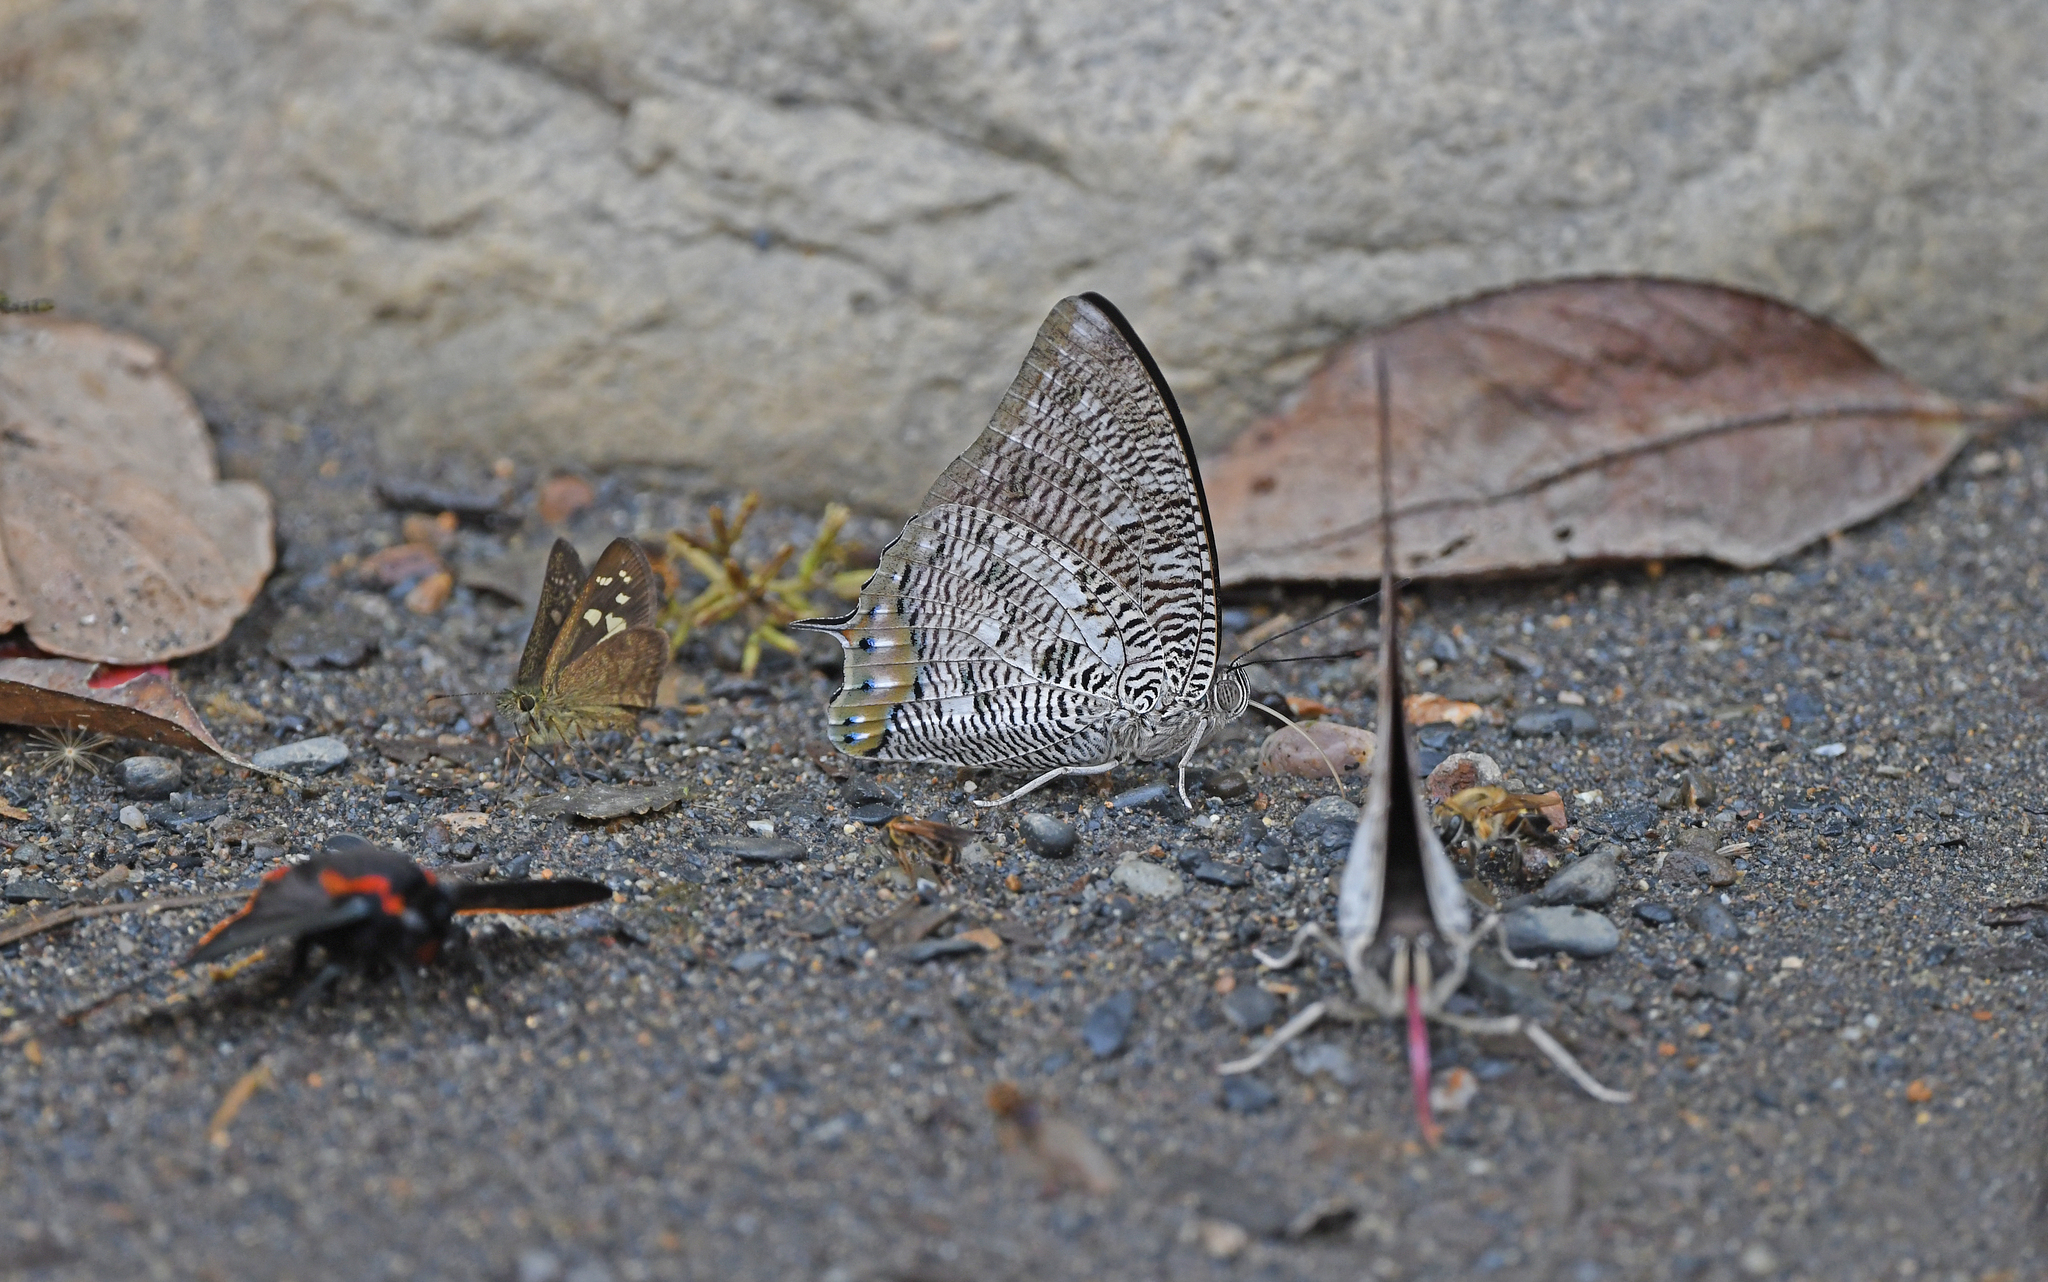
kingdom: Animalia
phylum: Arthropoda
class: Insecta
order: Lepidoptera
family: Nymphalidae
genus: Polygrapha
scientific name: Polygrapha cyanea
